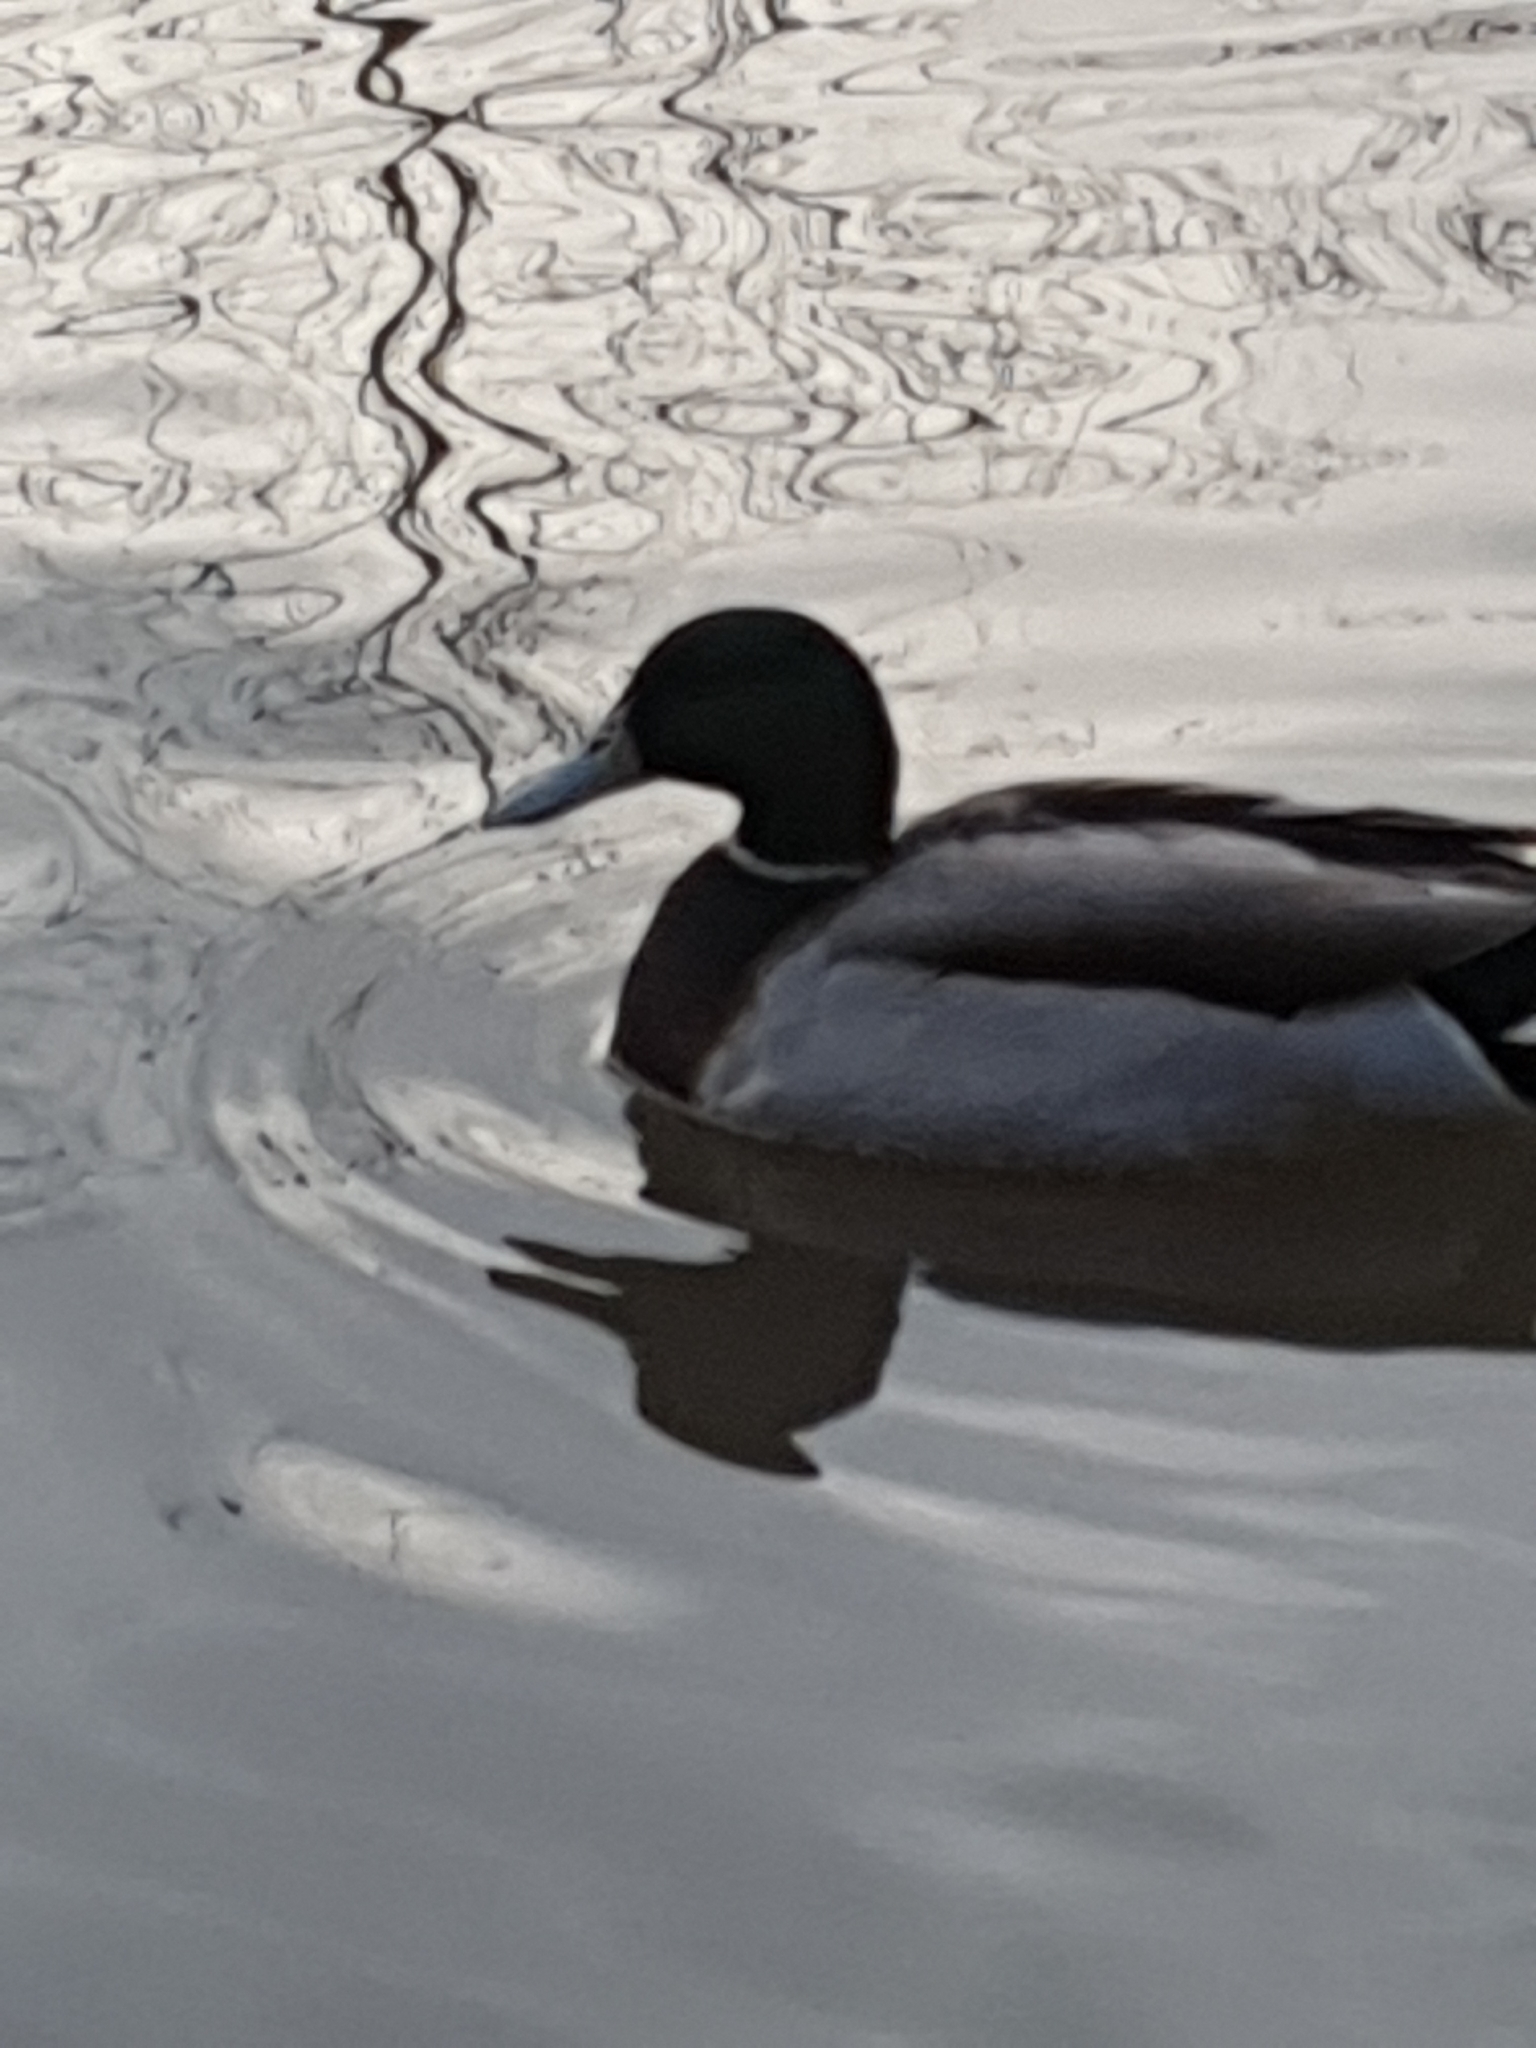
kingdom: Animalia
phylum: Chordata
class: Aves
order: Anseriformes
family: Anatidae
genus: Anas
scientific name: Anas platyrhynchos
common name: Mallard
